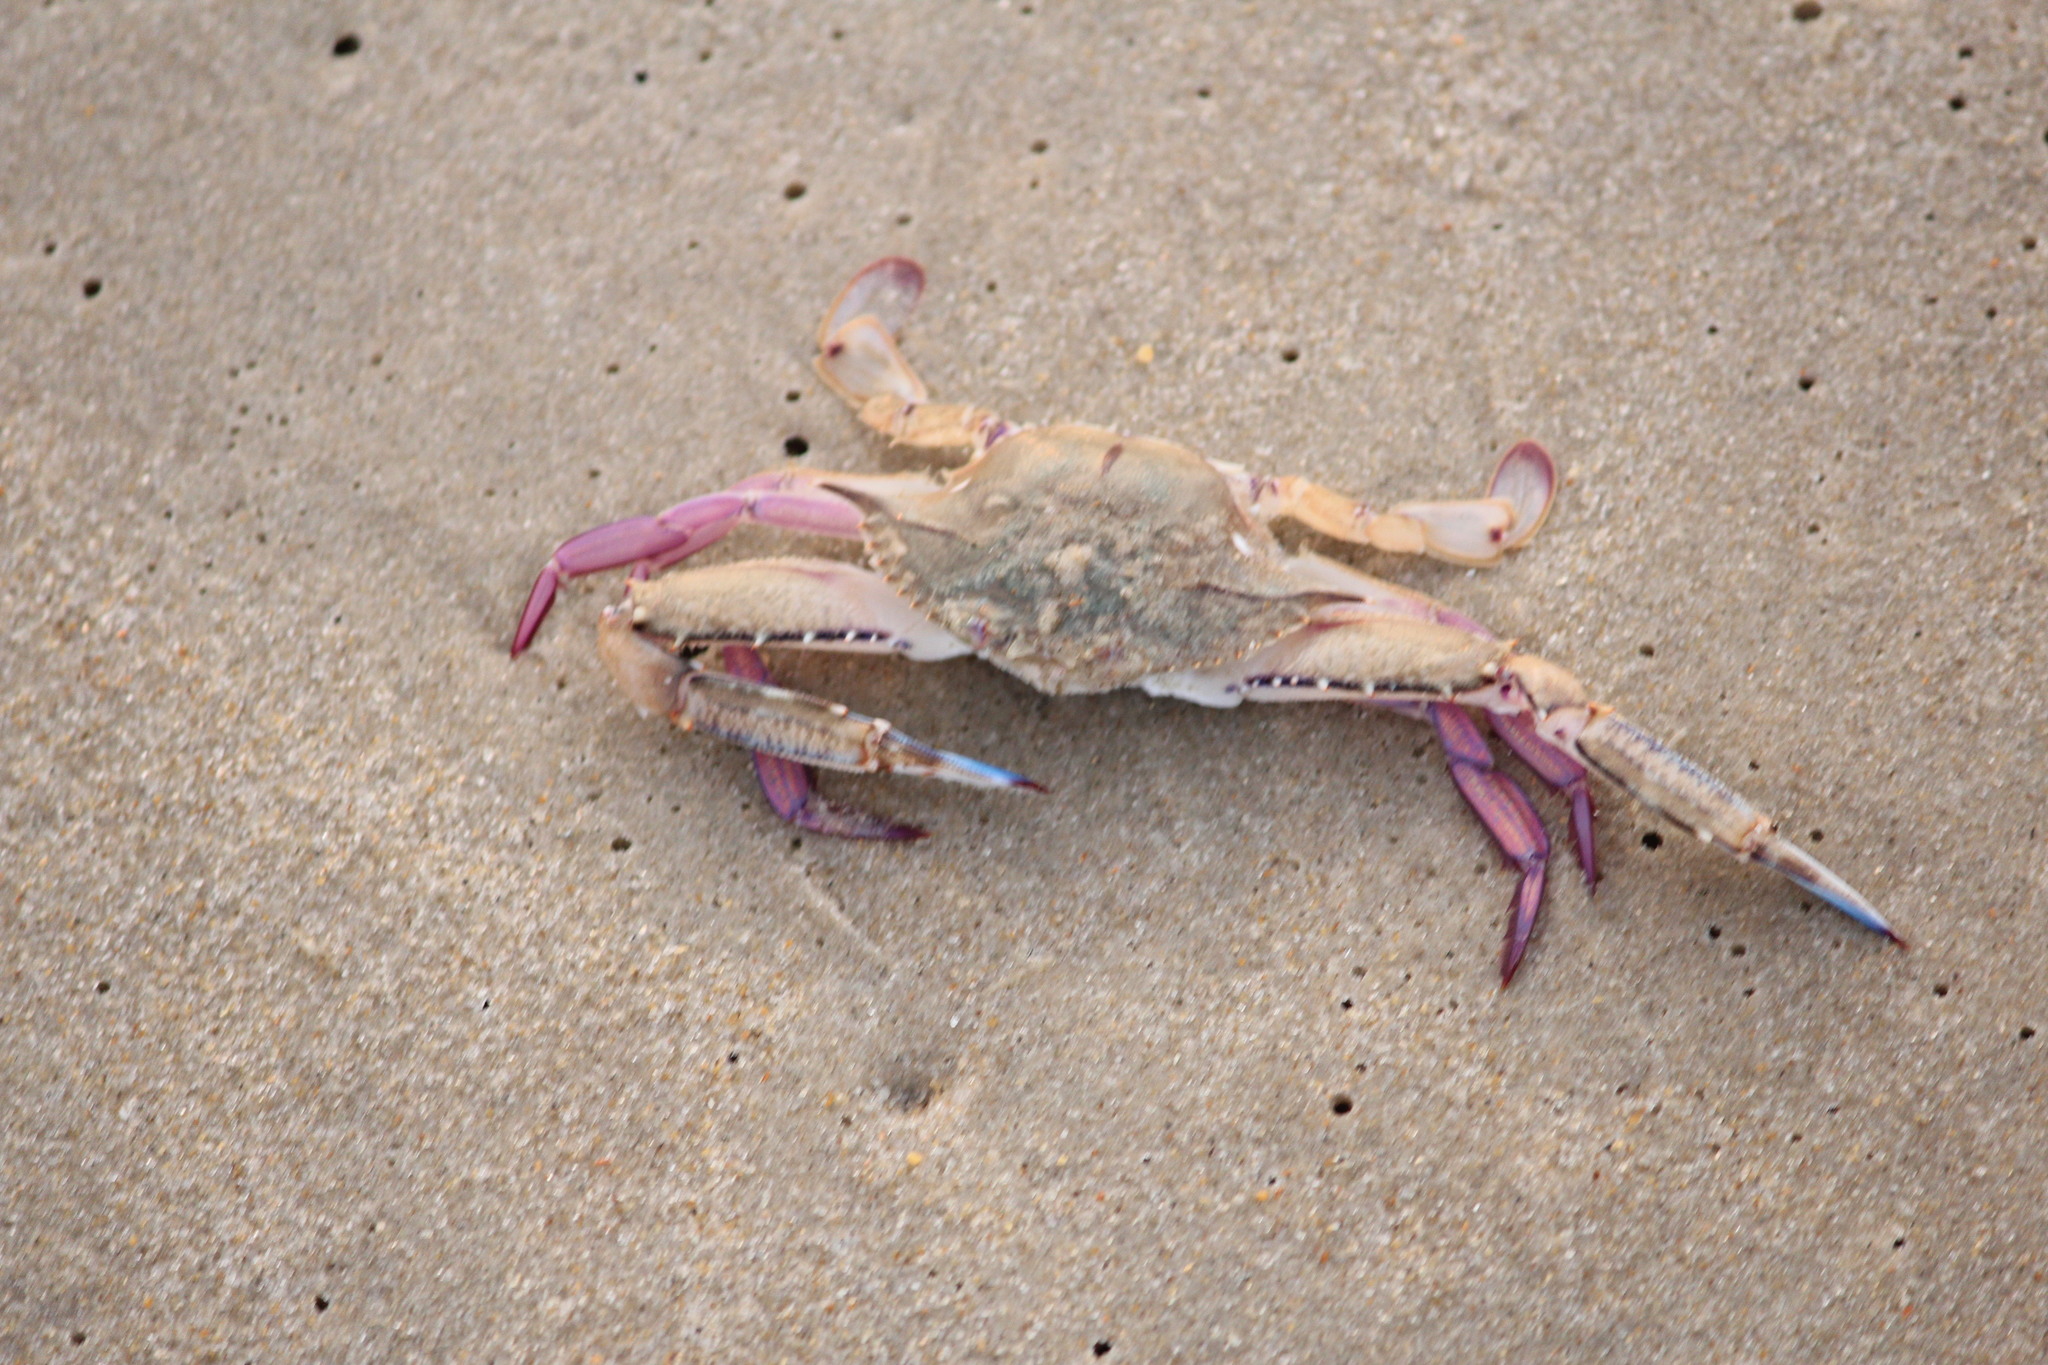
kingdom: Animalia
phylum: Arthropoda
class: Malacostraca
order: Decapoda
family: Portunidae
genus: Achelous
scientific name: Achelous gibbesii
